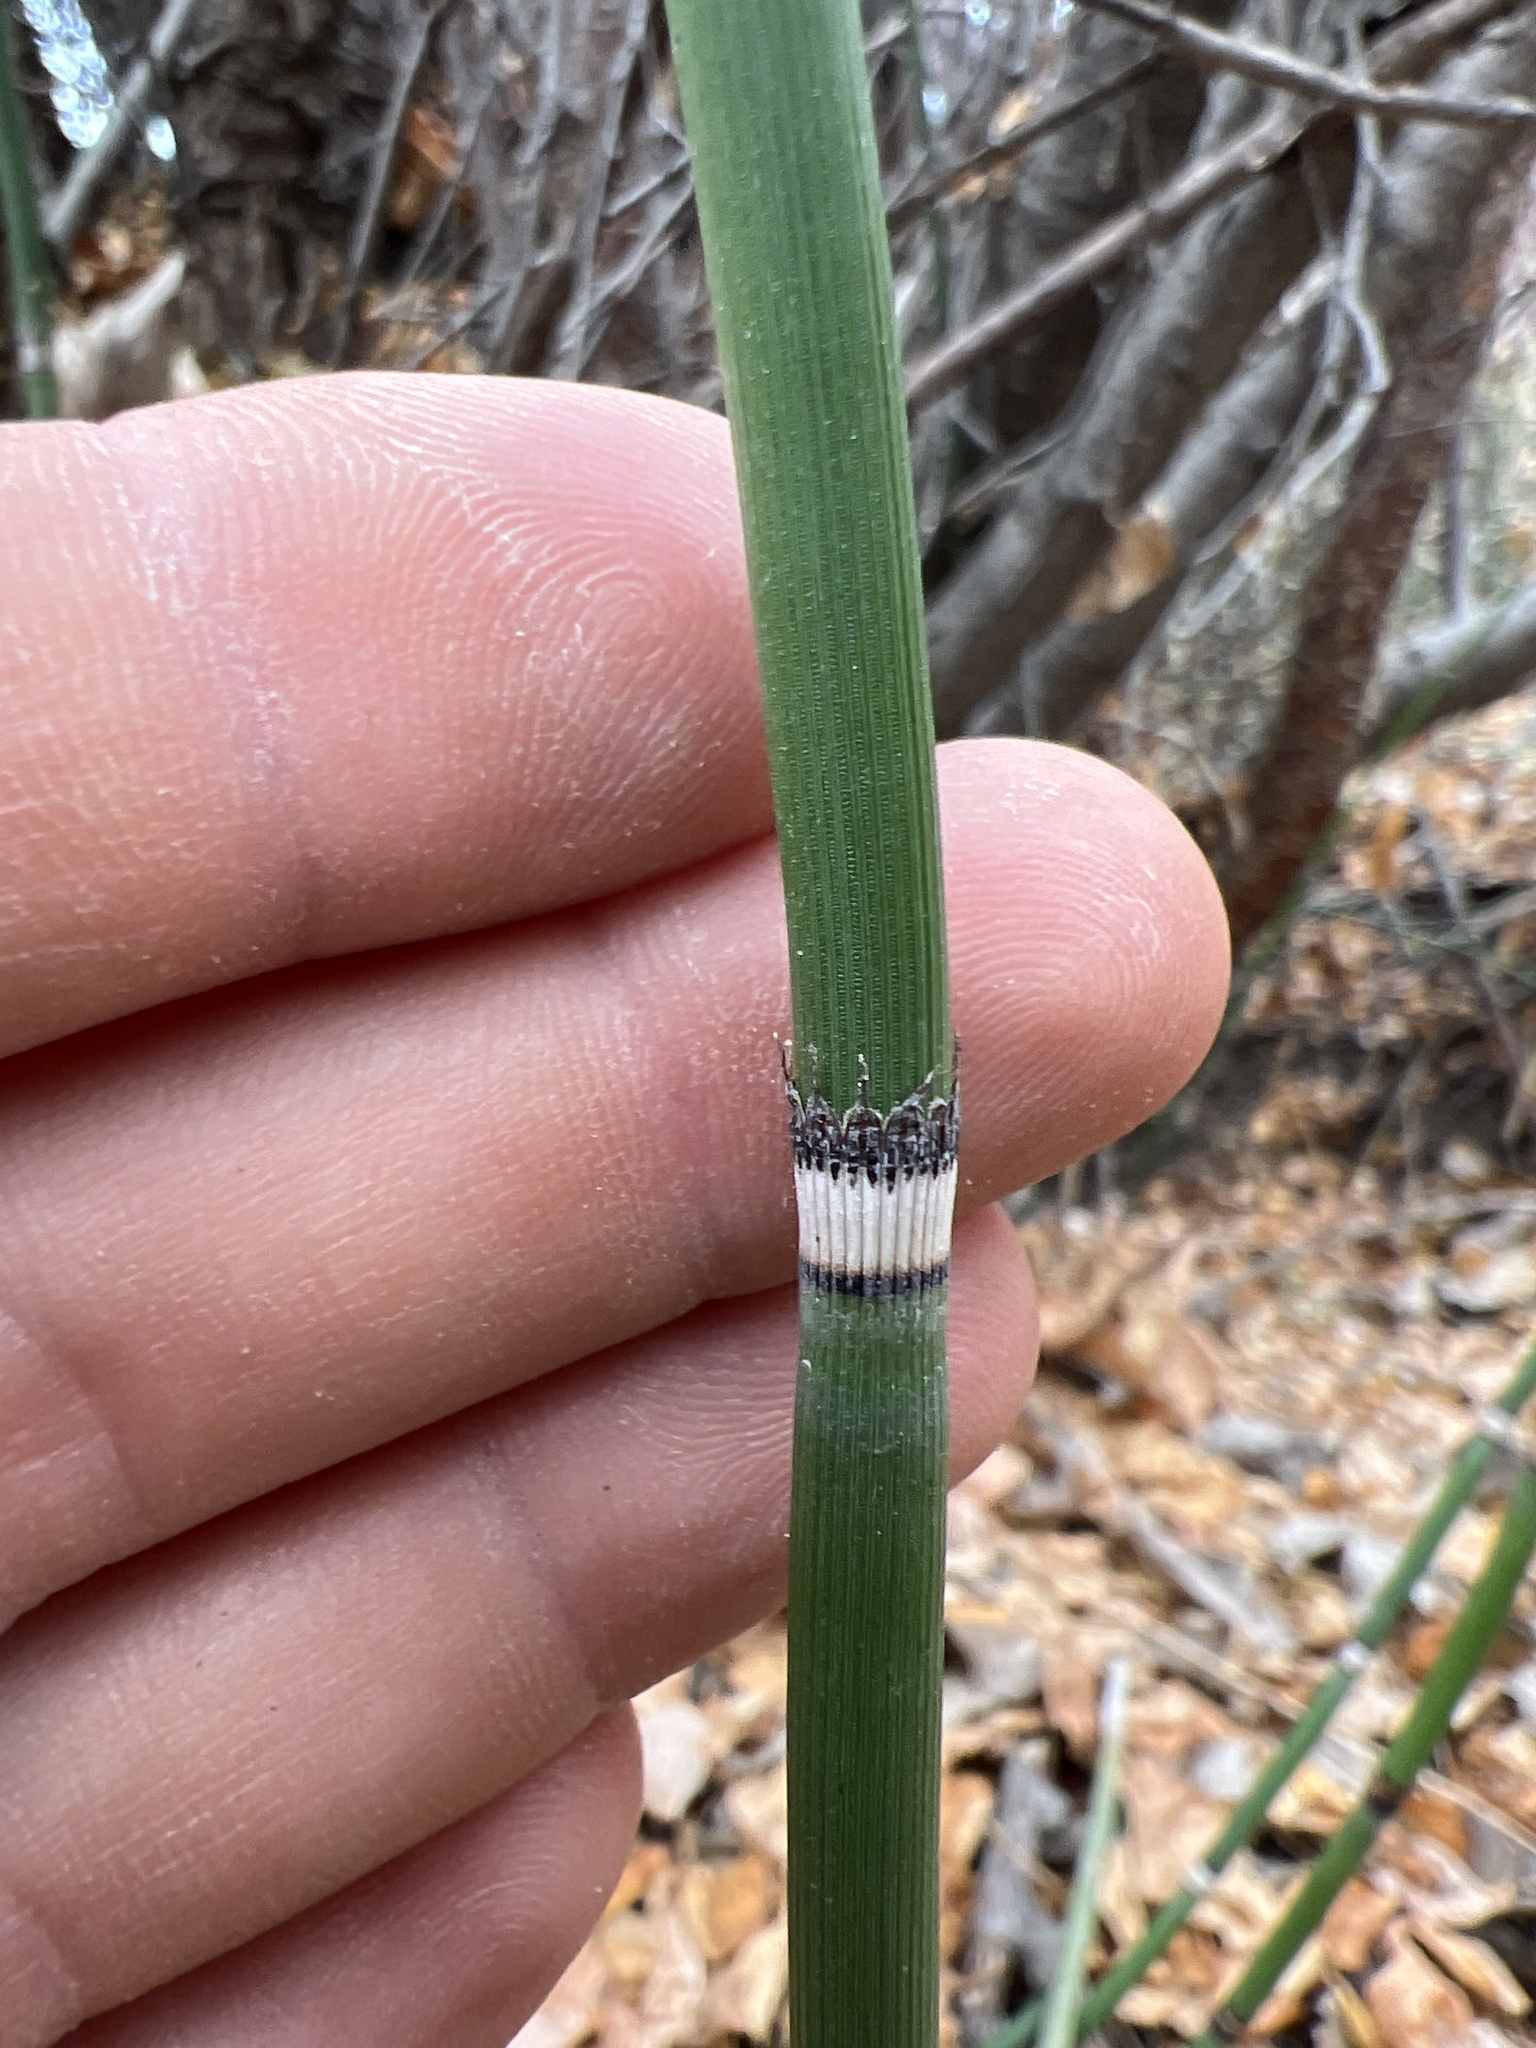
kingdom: Plantae
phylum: Tracheophyta
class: Polypodiopsida
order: Equisetales
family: Equisetaceae
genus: Equisetum
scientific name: Equisetum hyemale
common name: Rough horsetail
